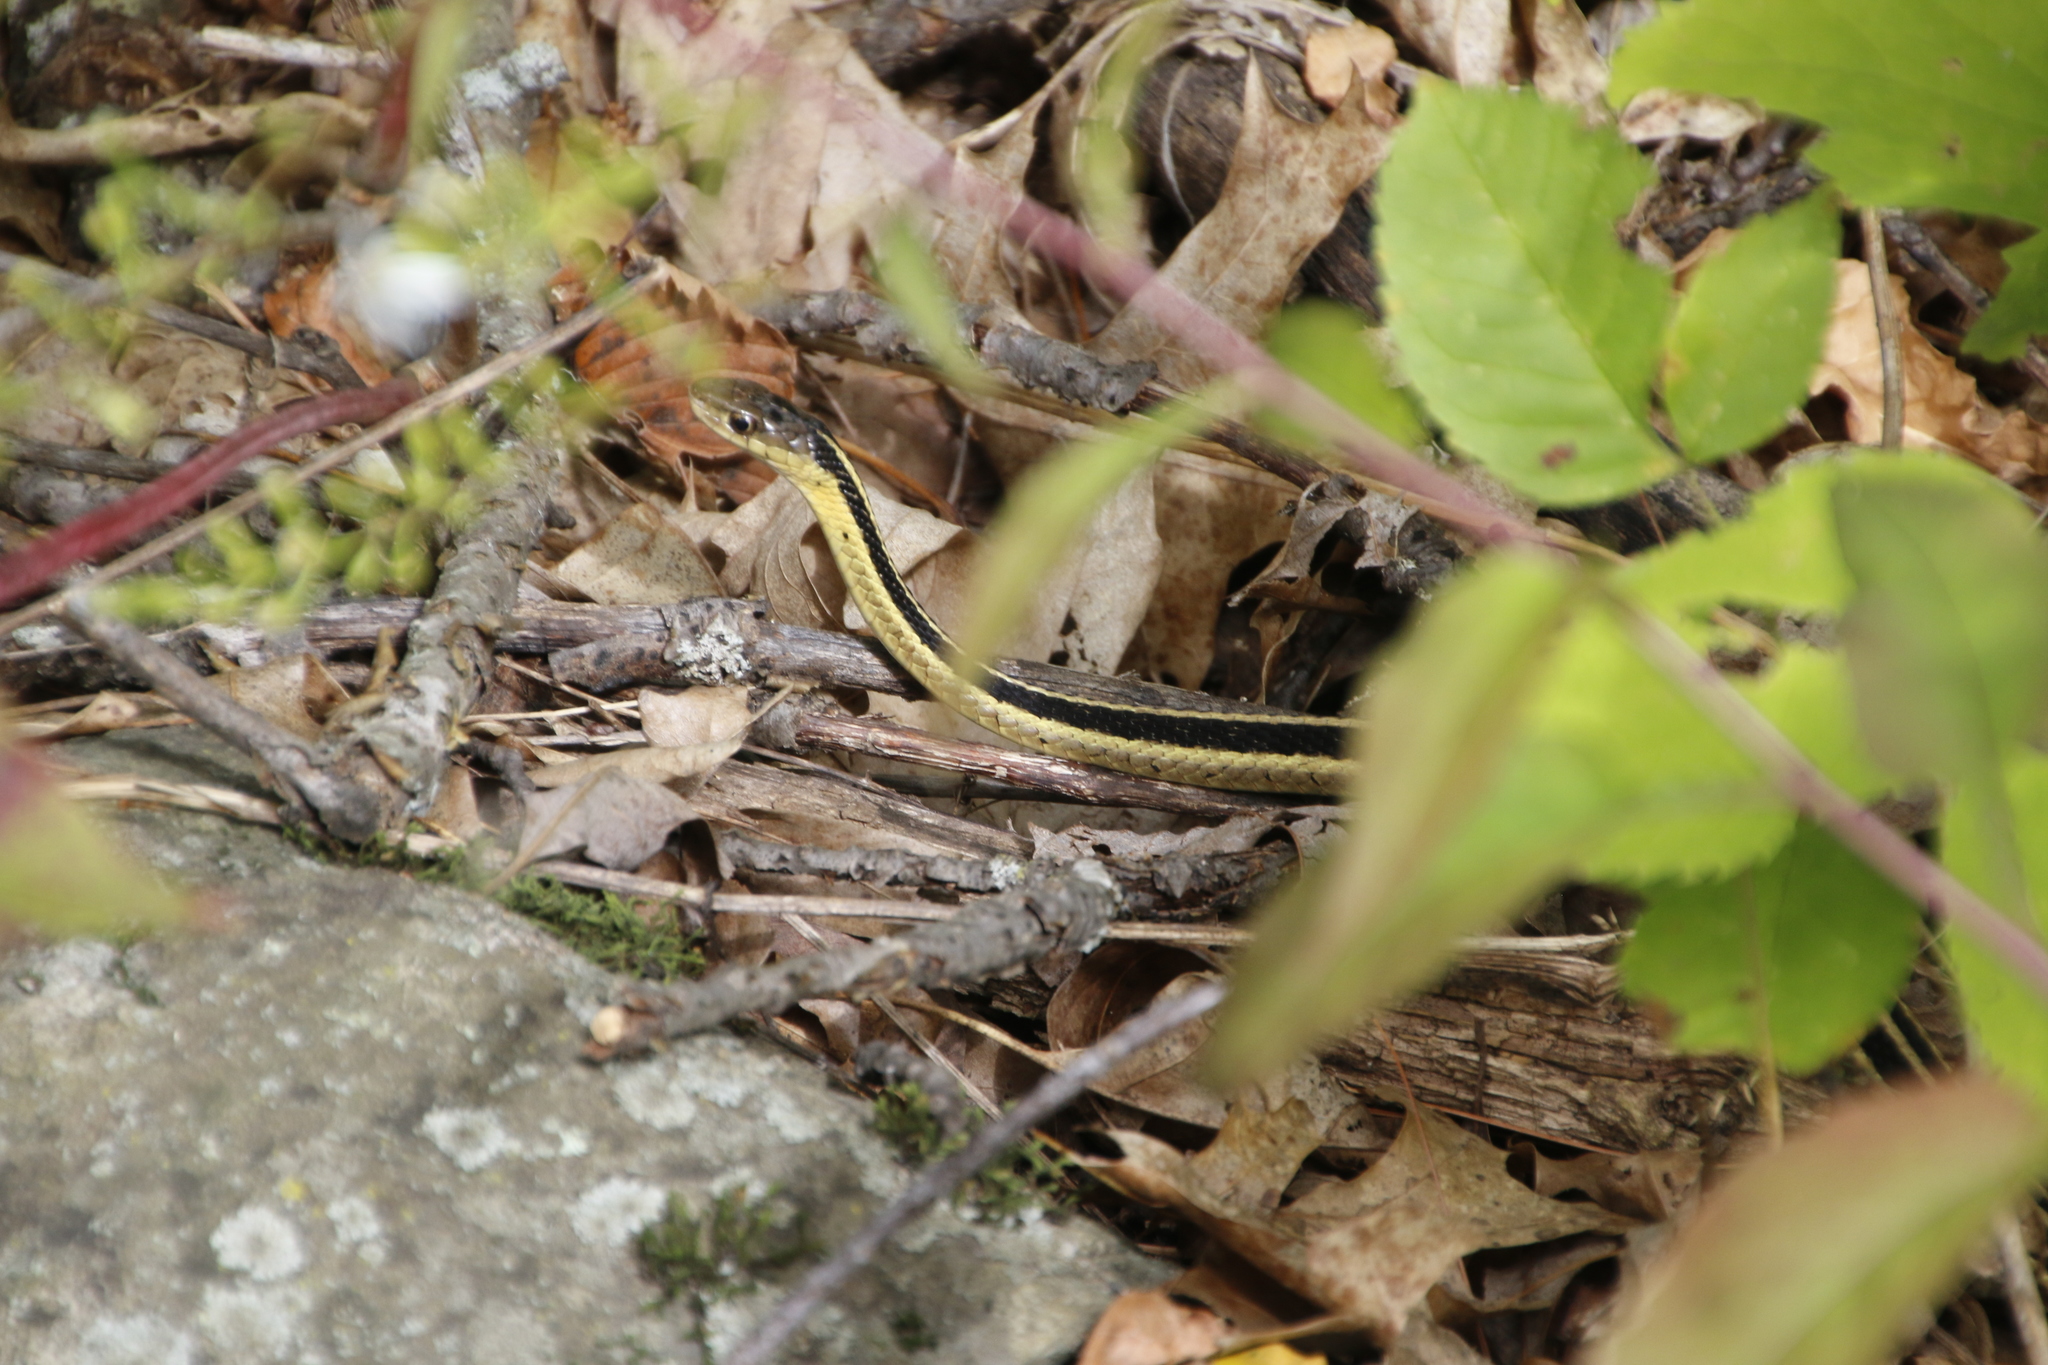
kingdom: Animalia
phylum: Chordata
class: Squamata
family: Colubridae
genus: Thamnophis
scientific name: Thamnophis sirtalis
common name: Common garter snake
